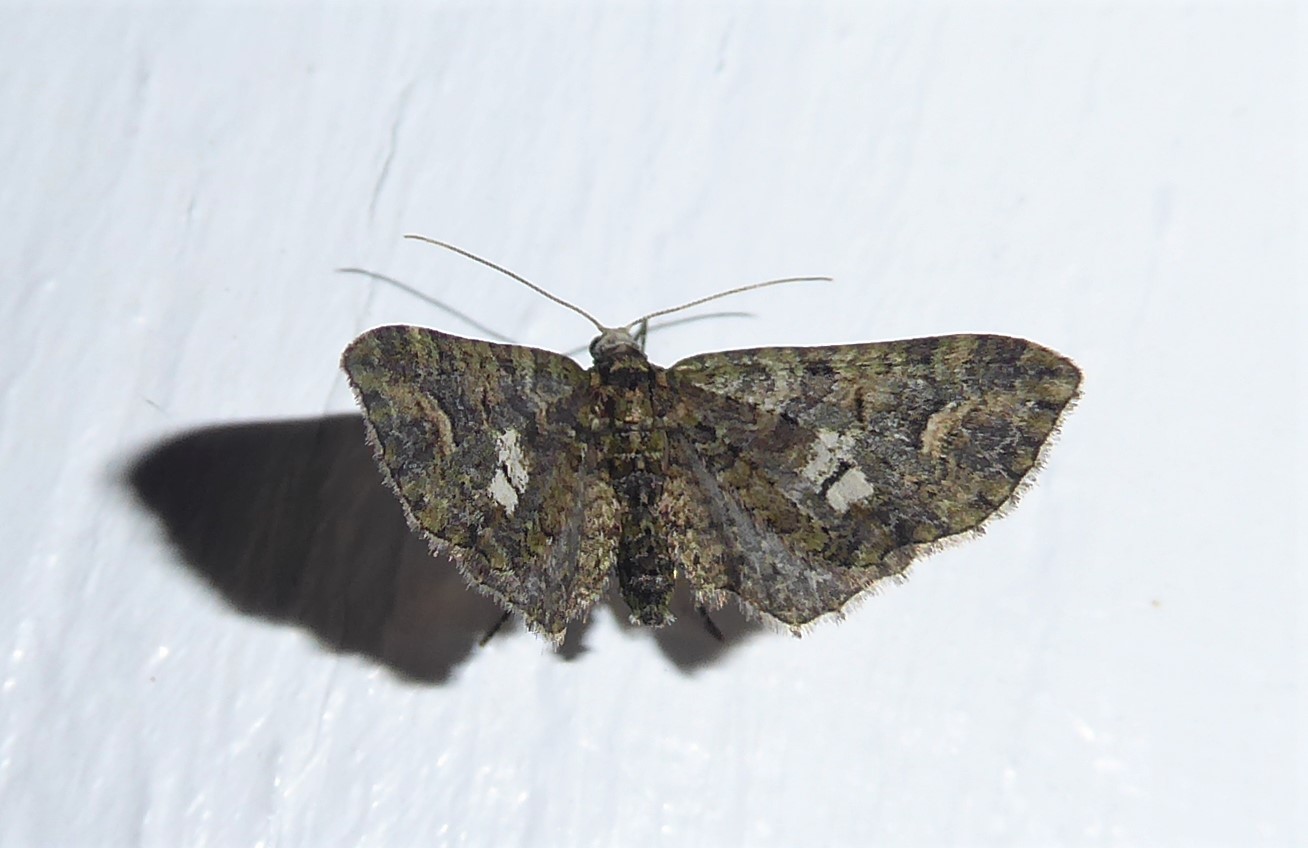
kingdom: Animalia
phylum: Arthropoda
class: Insecta
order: Lepidoptera
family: Geometridae
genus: Idaea
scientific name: Idaea mutanda
